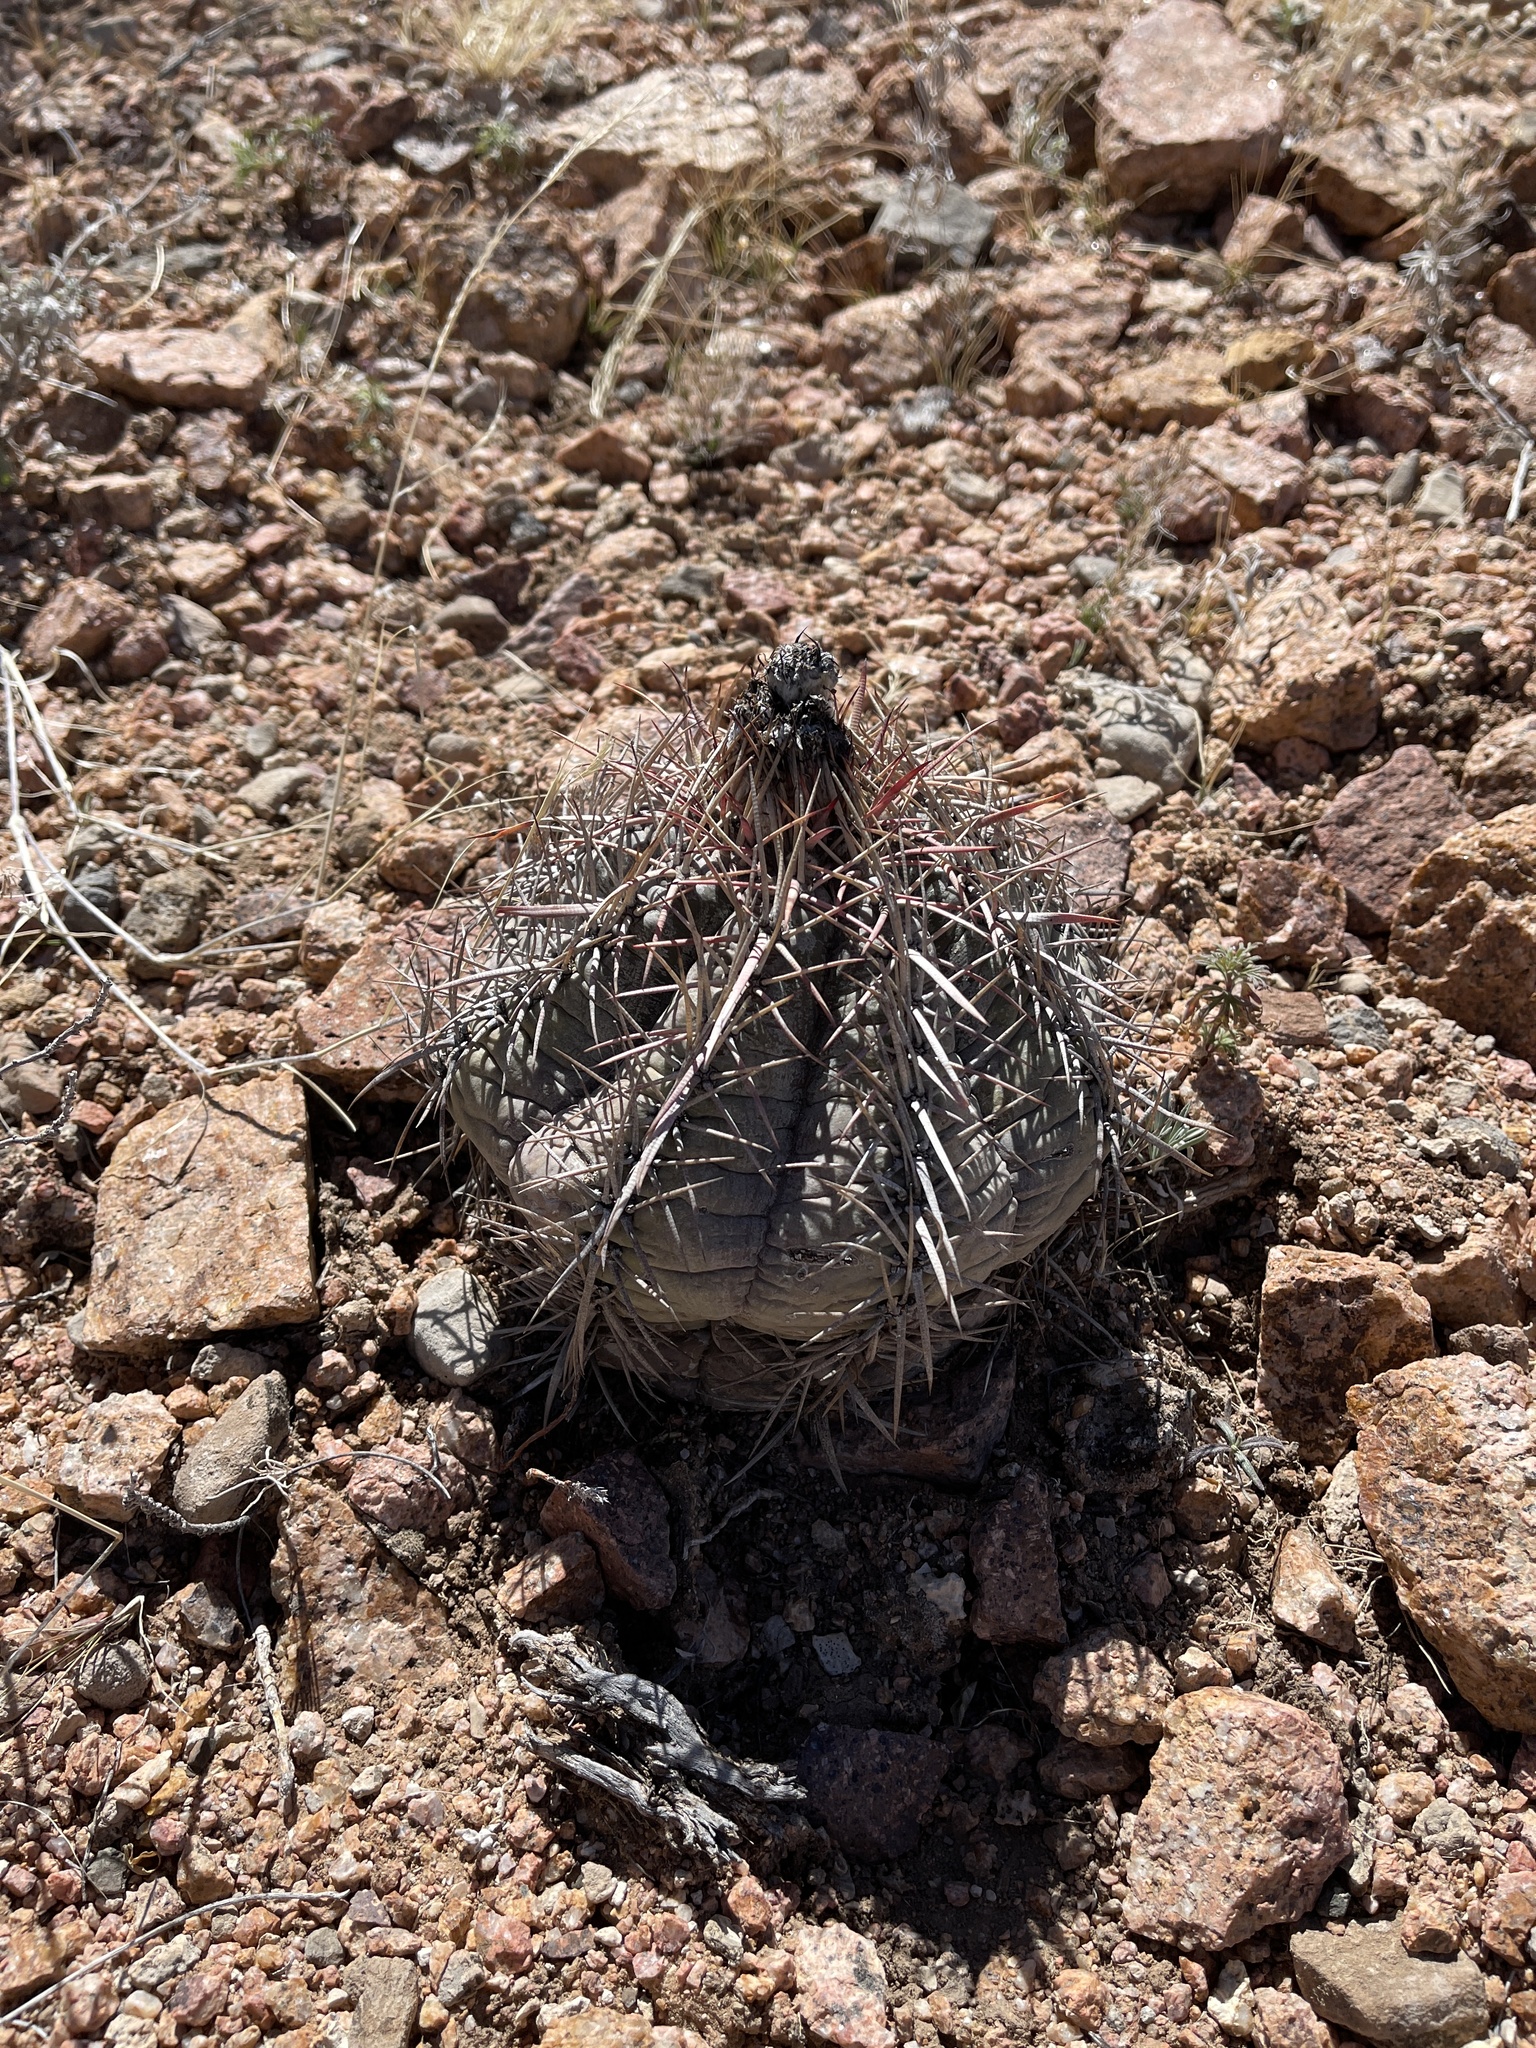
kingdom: Plantae
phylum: Tracheophyta
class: Magnoliopsida
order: Caryophyllales
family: Cactaceae
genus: Echinocactus
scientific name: Echinocactus horizonthalonius
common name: Devilshead
